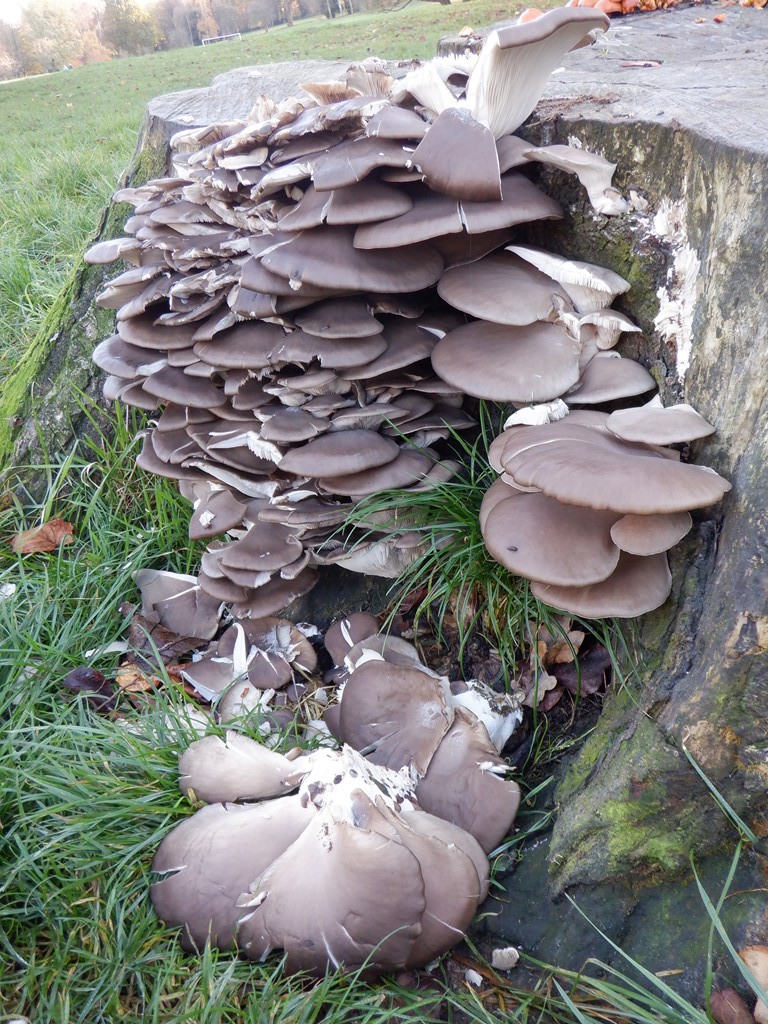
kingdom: Fungi
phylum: Basidiomycota
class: Agaricomycetes
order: Agaricales
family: Pleurotaceae
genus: Pleurotus
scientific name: Pleurotus ostreatus
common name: Oyster mushroom
